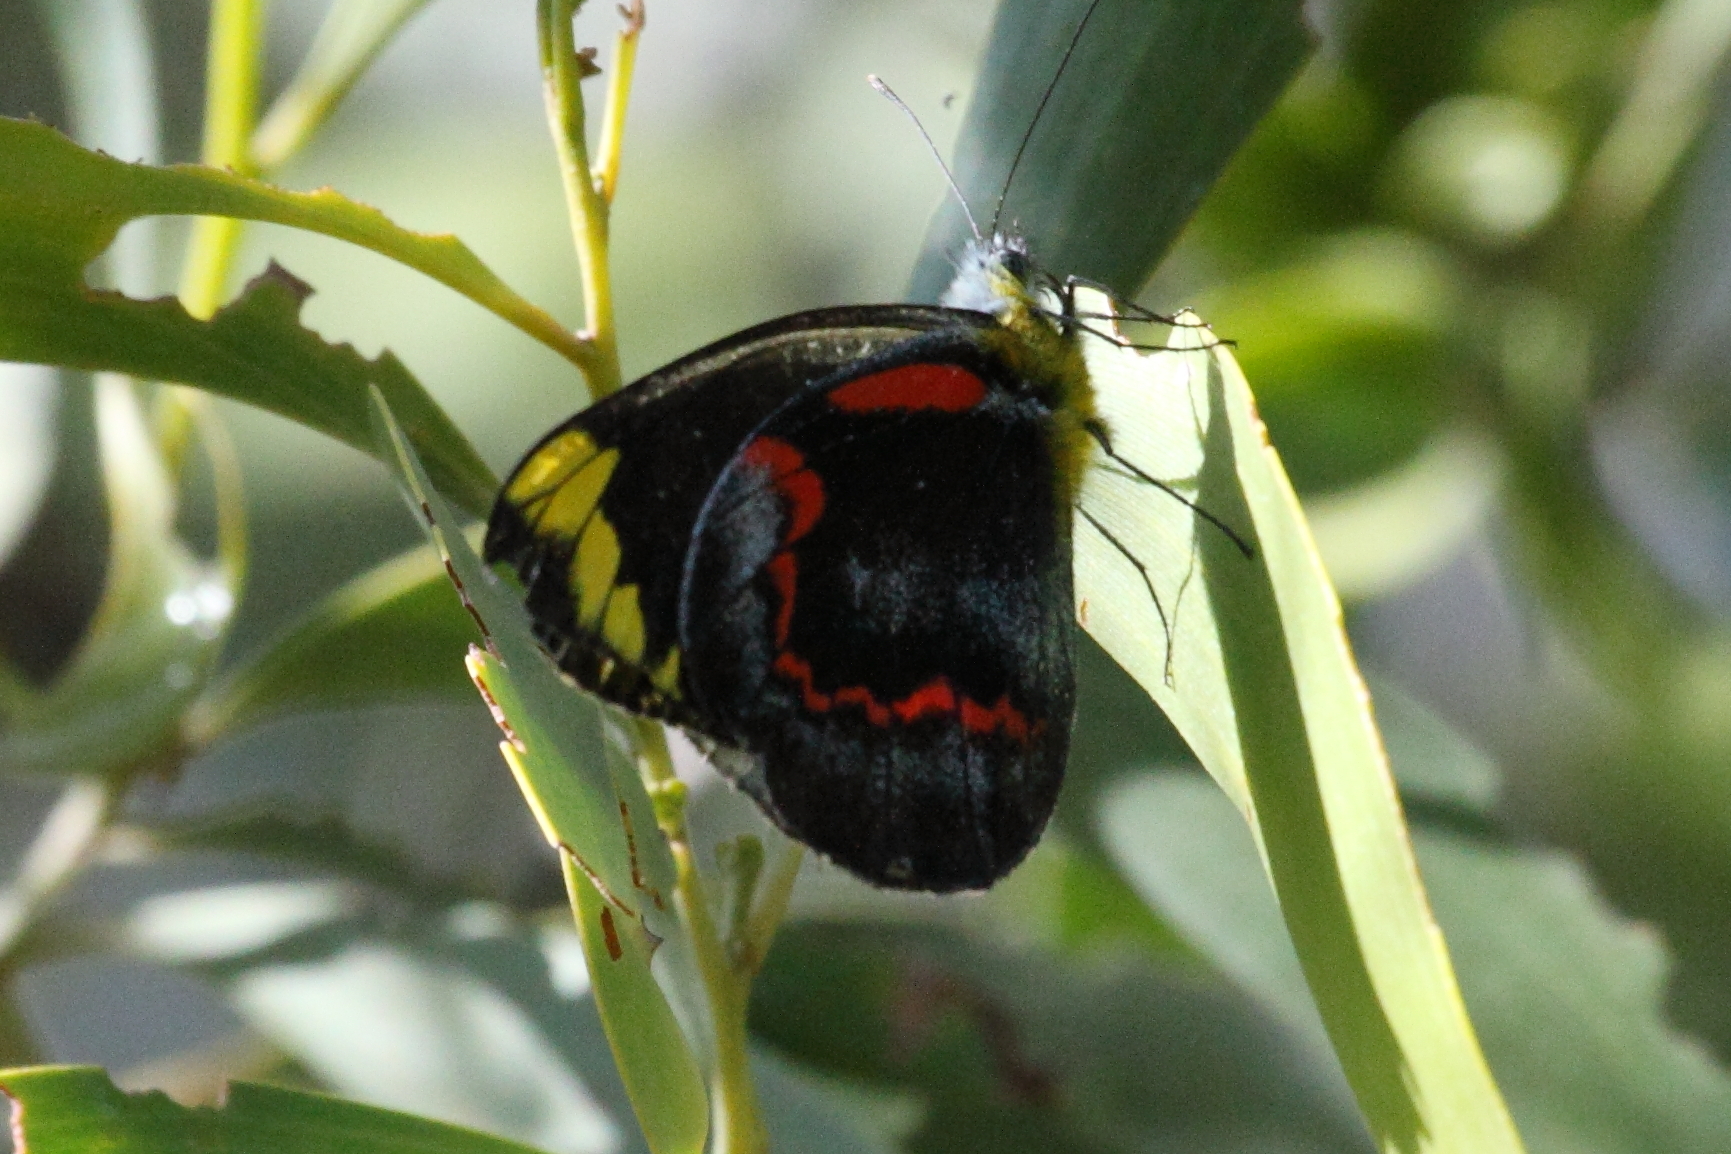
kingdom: Animalia
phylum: Arthropoda
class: Insecta
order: Lepidoptera
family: Pieridae
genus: Delias
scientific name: Delias nigrina
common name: Black jezebel
